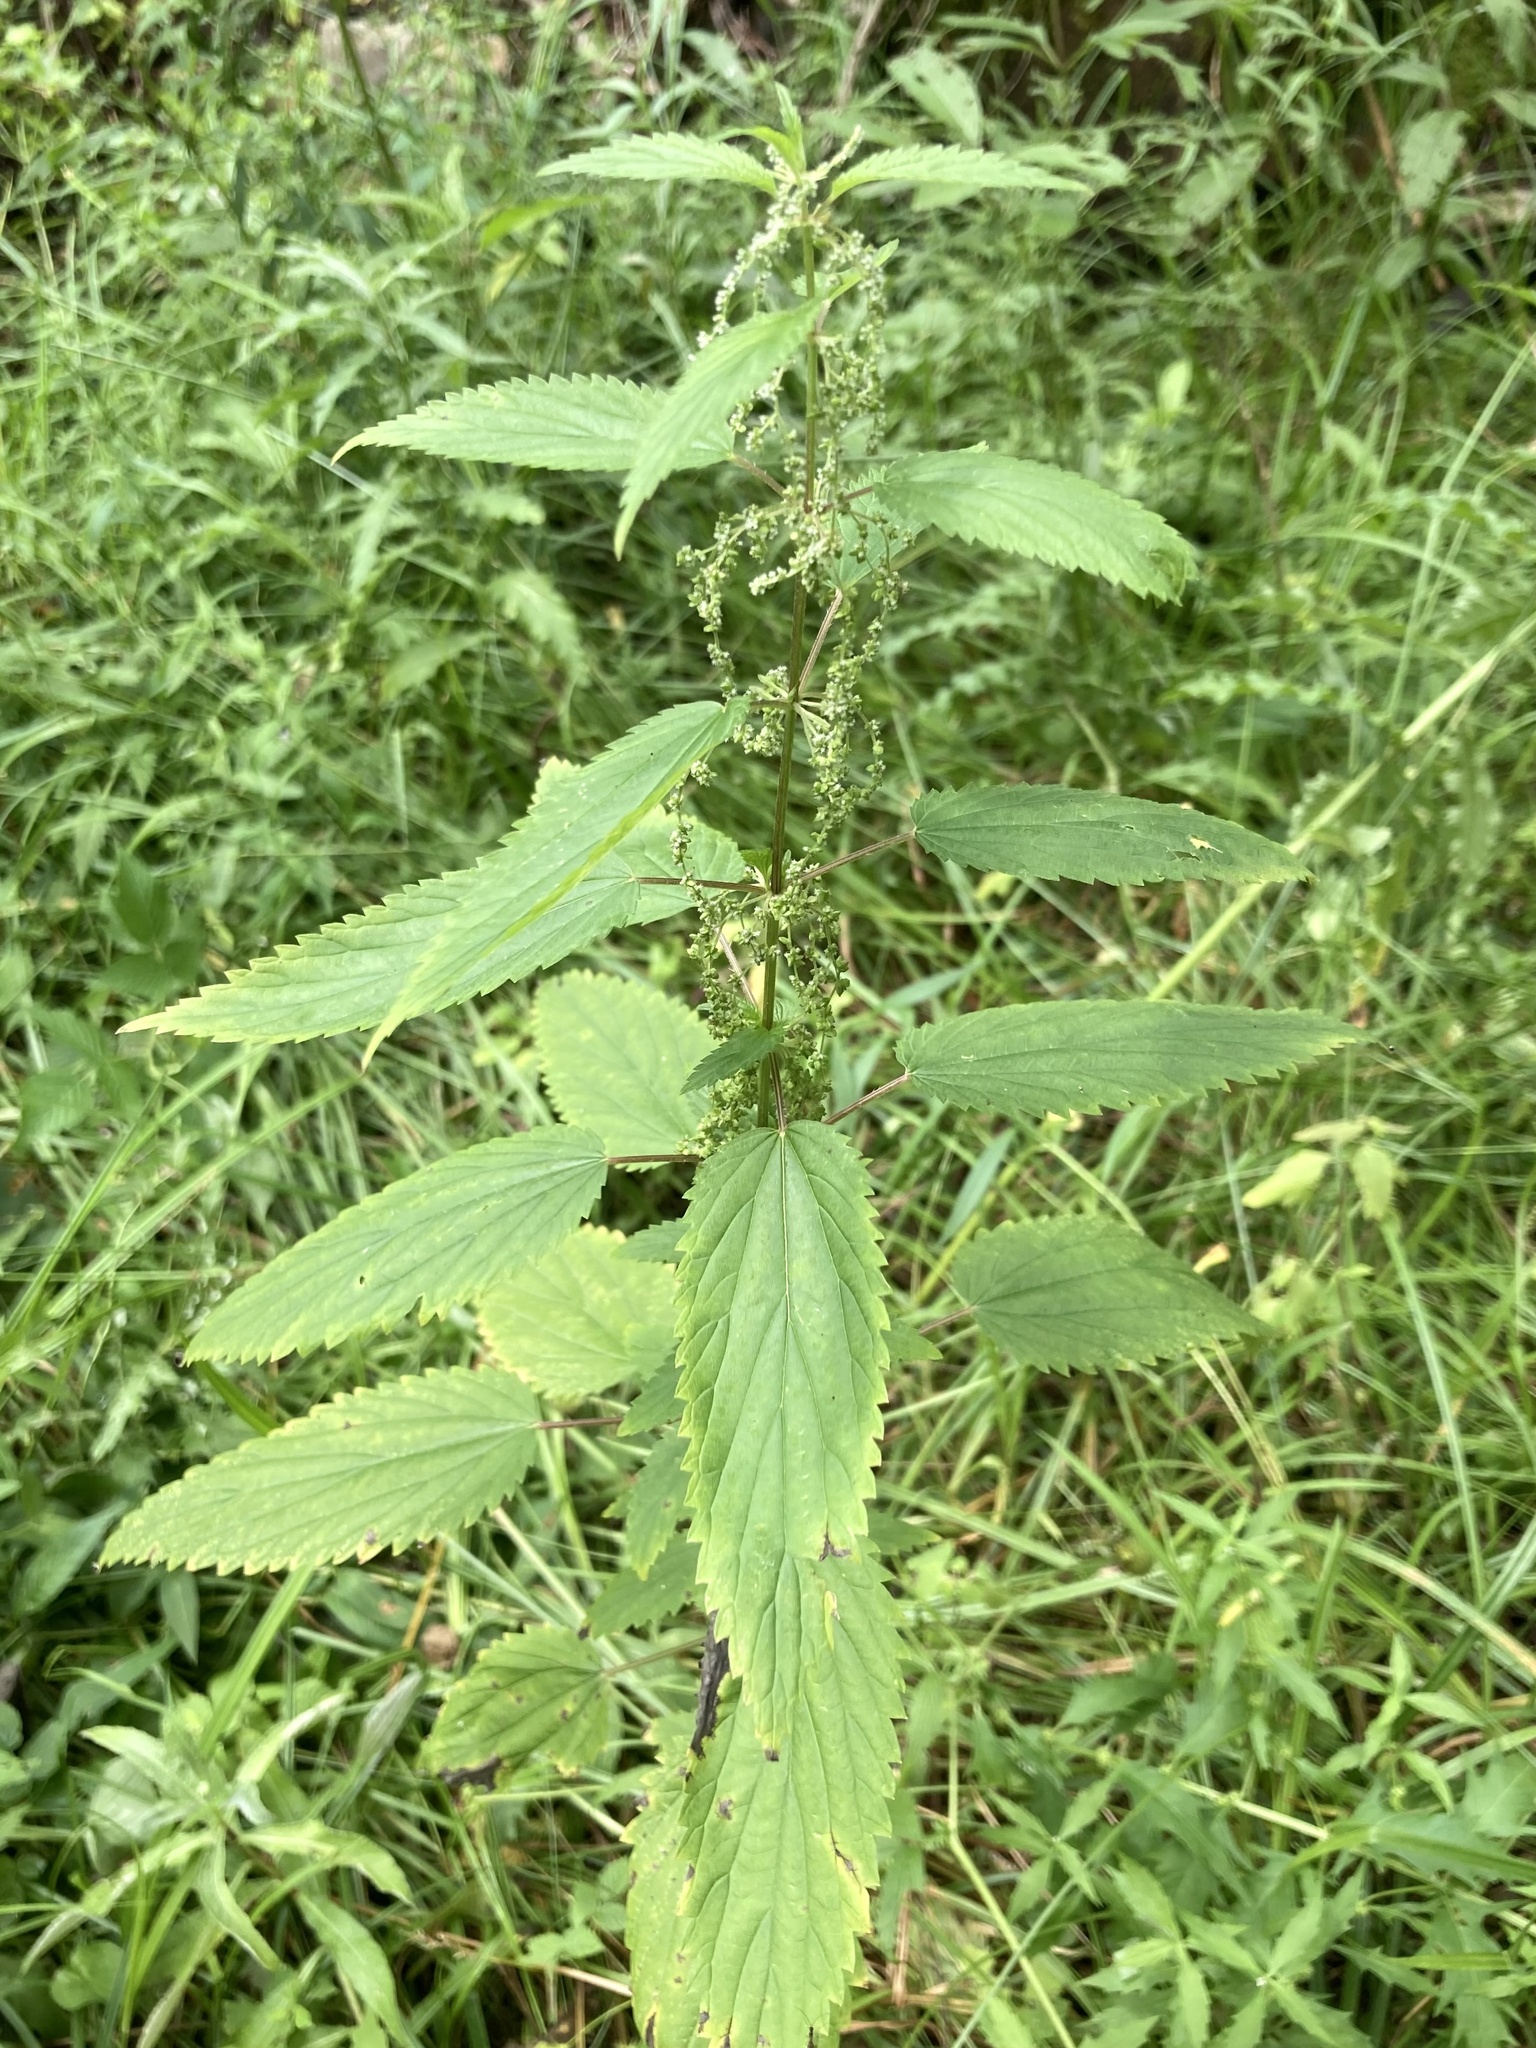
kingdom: Plantae
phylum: Tracheophyta
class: Magnoliopsida
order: Rosales
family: Urticaceae
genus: Urtica
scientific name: Urtica gracilis
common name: Slender stinging nettle
